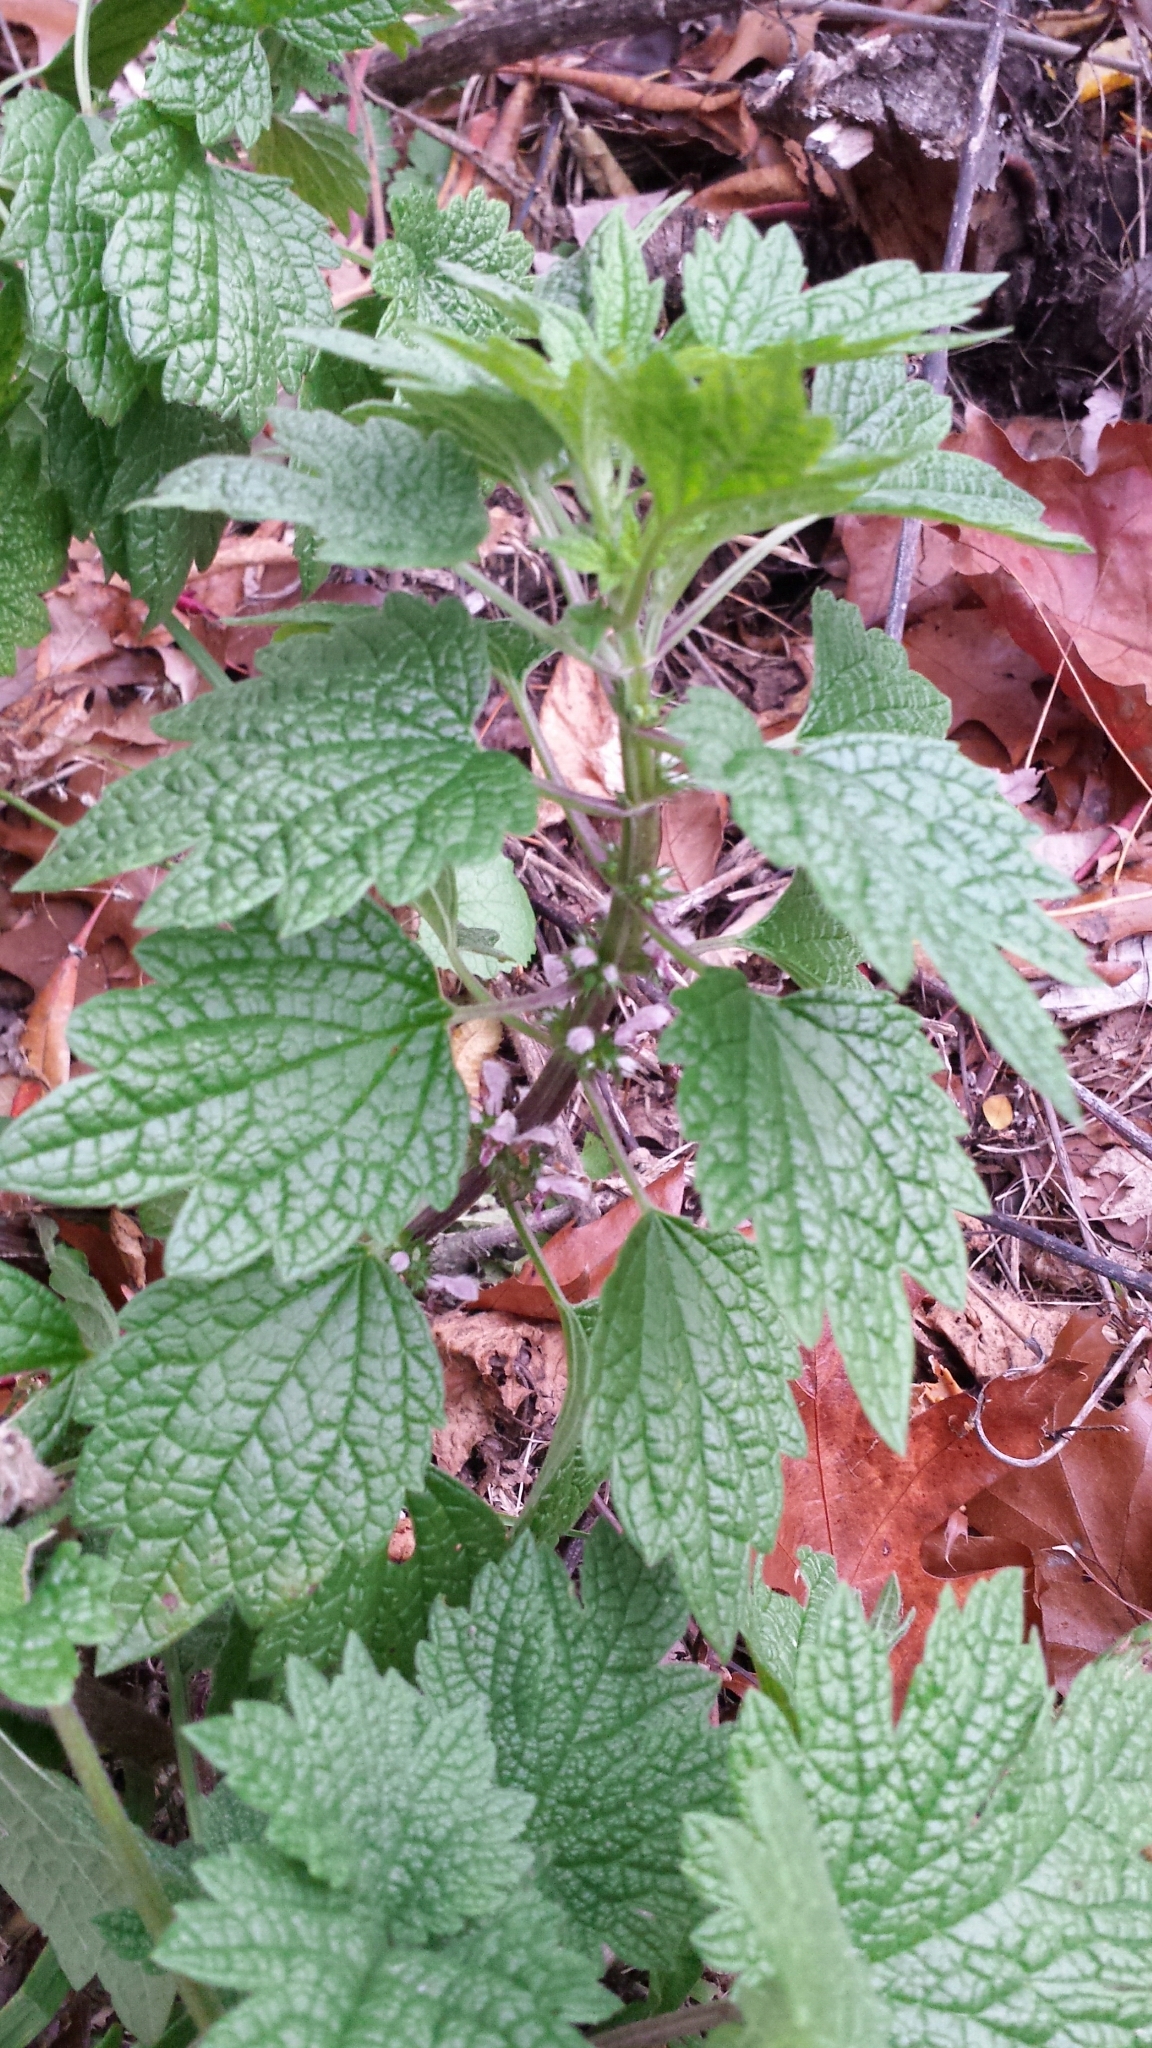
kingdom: Plantae
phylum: Tracheophyta
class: Magnoliopsida
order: Lamiales
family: Lamiaceae
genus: Leonurus
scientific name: Leonurus cardiaca
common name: Motherwort
